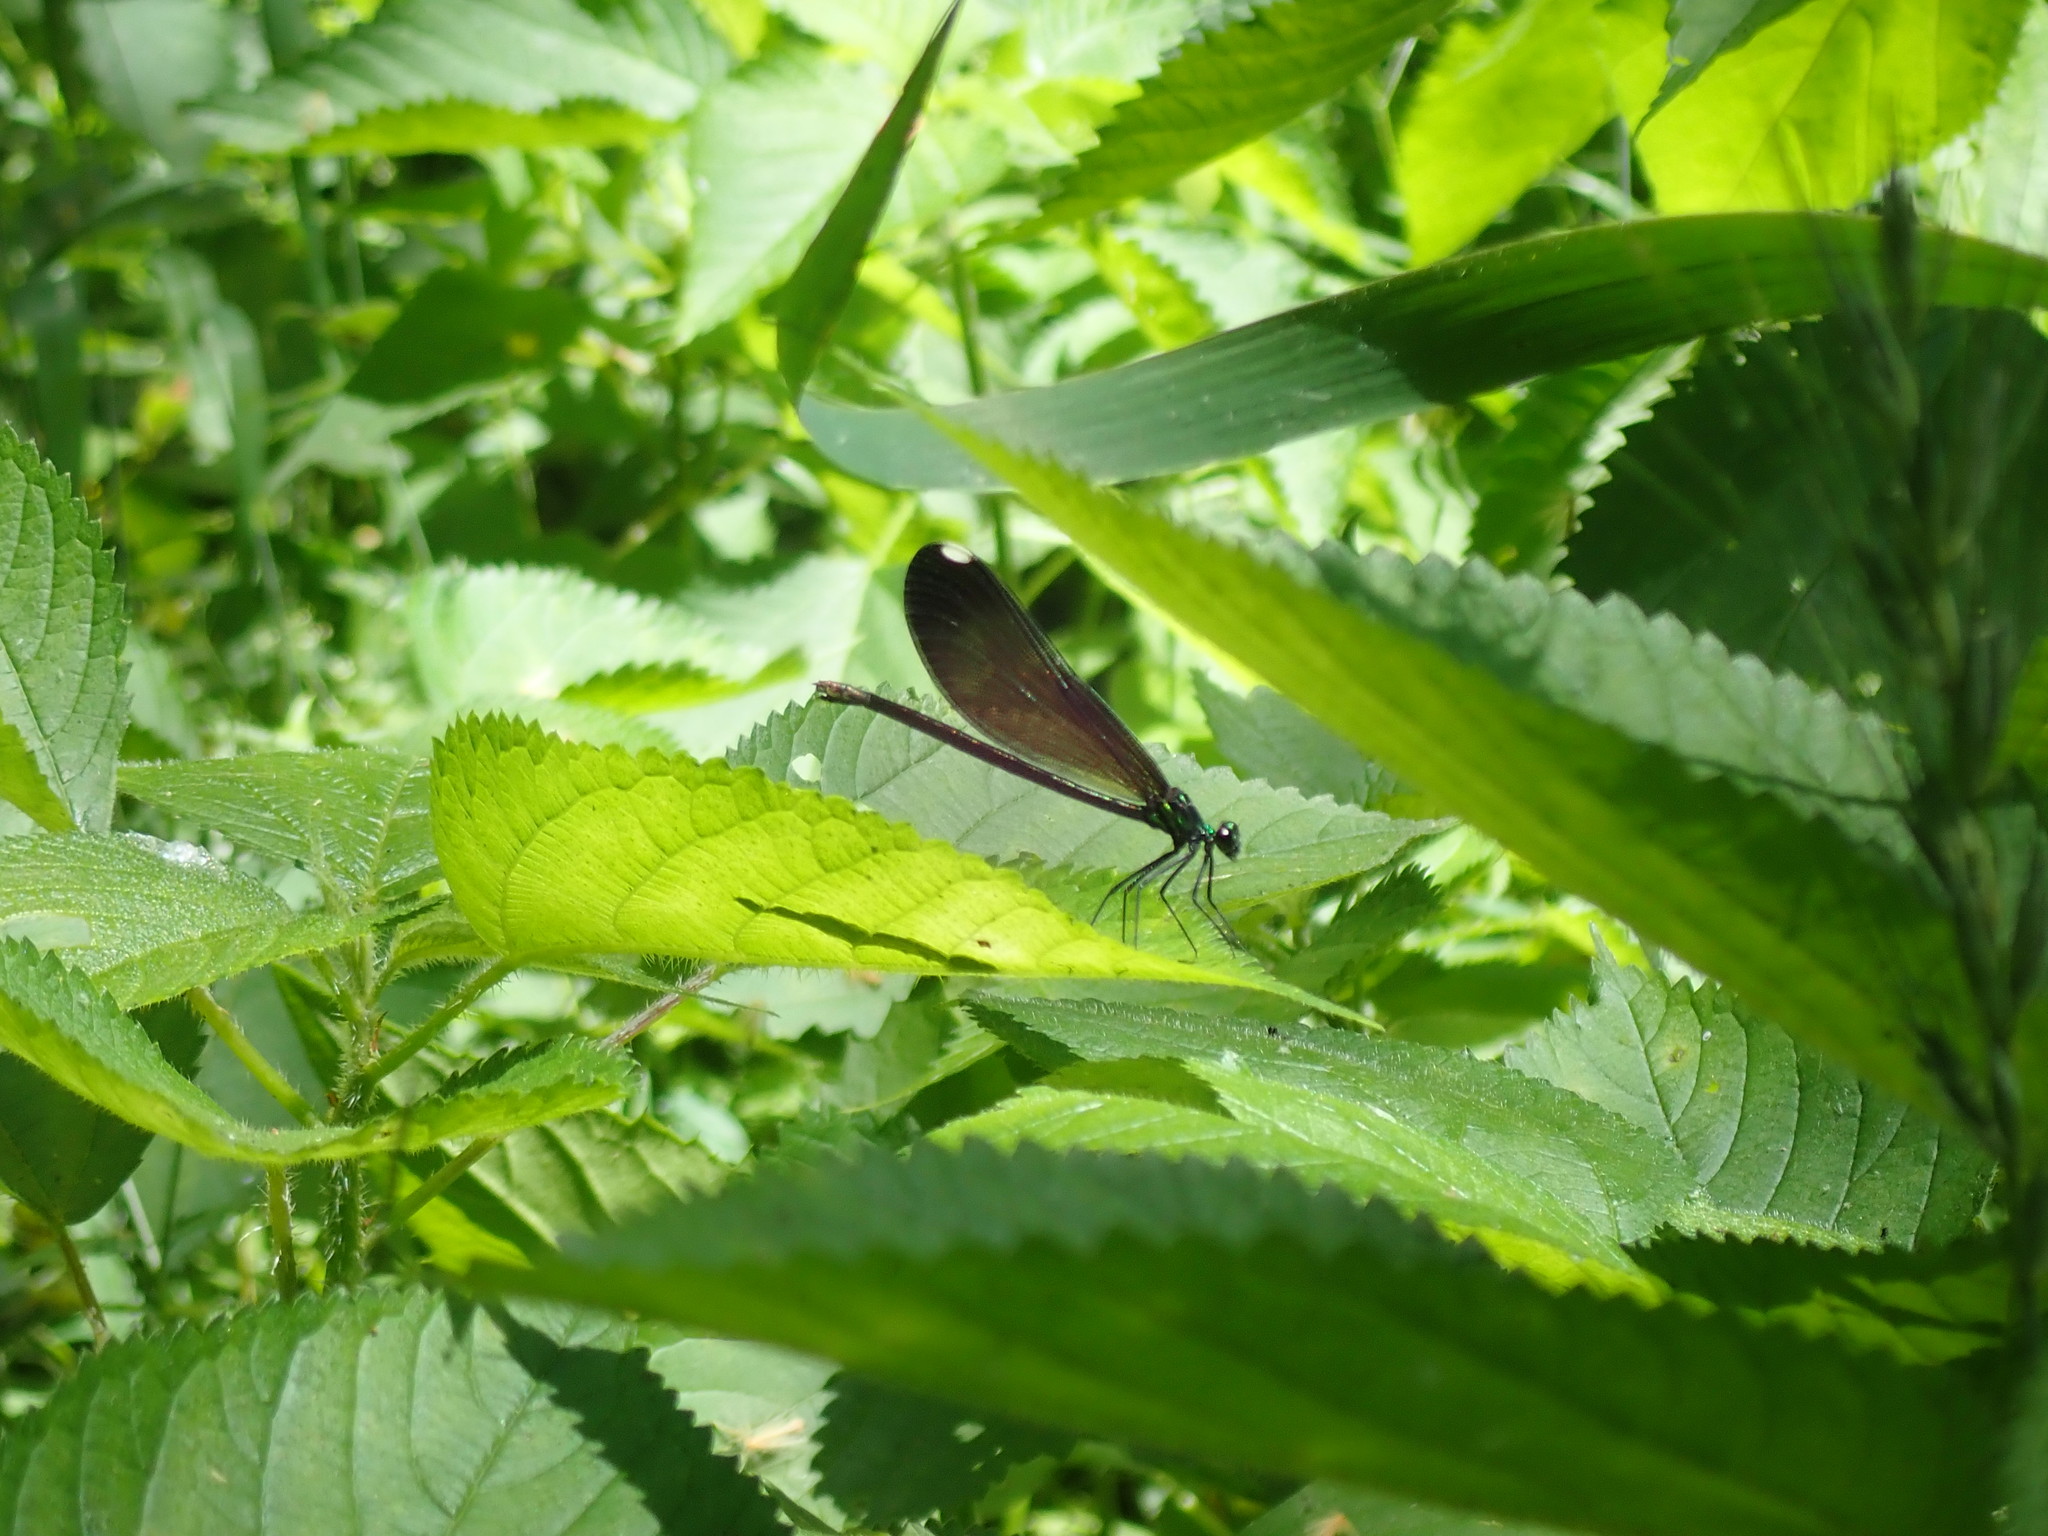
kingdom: Animalia
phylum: Arthropoda
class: Insecta
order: Odonata
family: Calopterygidae
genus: Calopteryx
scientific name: Calopteryx maculata
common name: Ebony jewelwing
